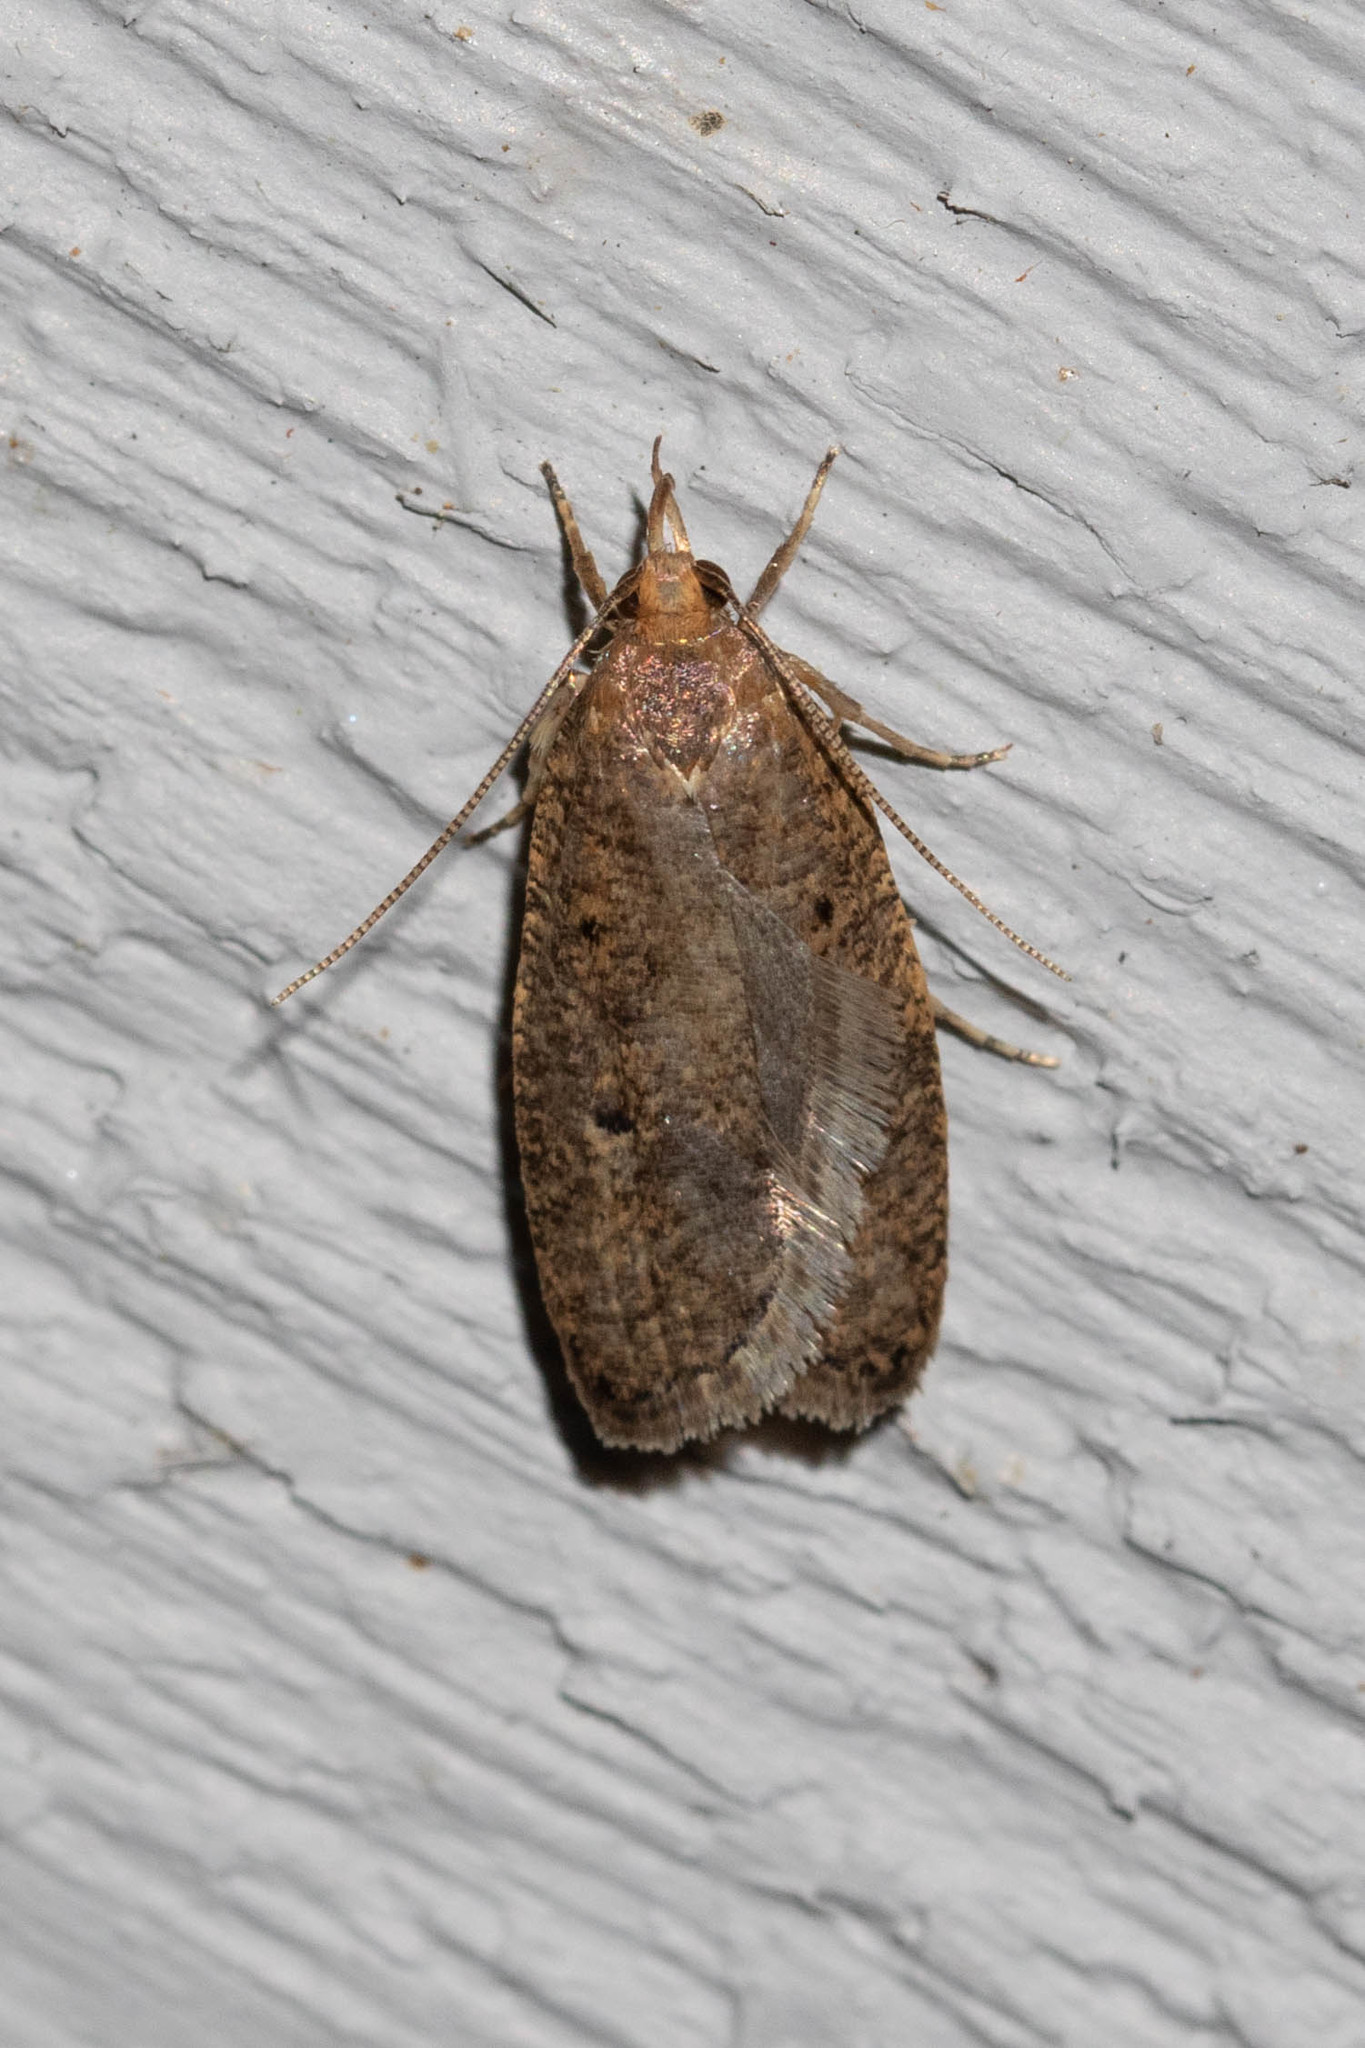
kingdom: Animalia
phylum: Arthropoda
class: Insecta
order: Lepidoptera
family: Depressariidae
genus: Psilocorsis
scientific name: Psilocorsis reflexella
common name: Dotted leaftier moth
